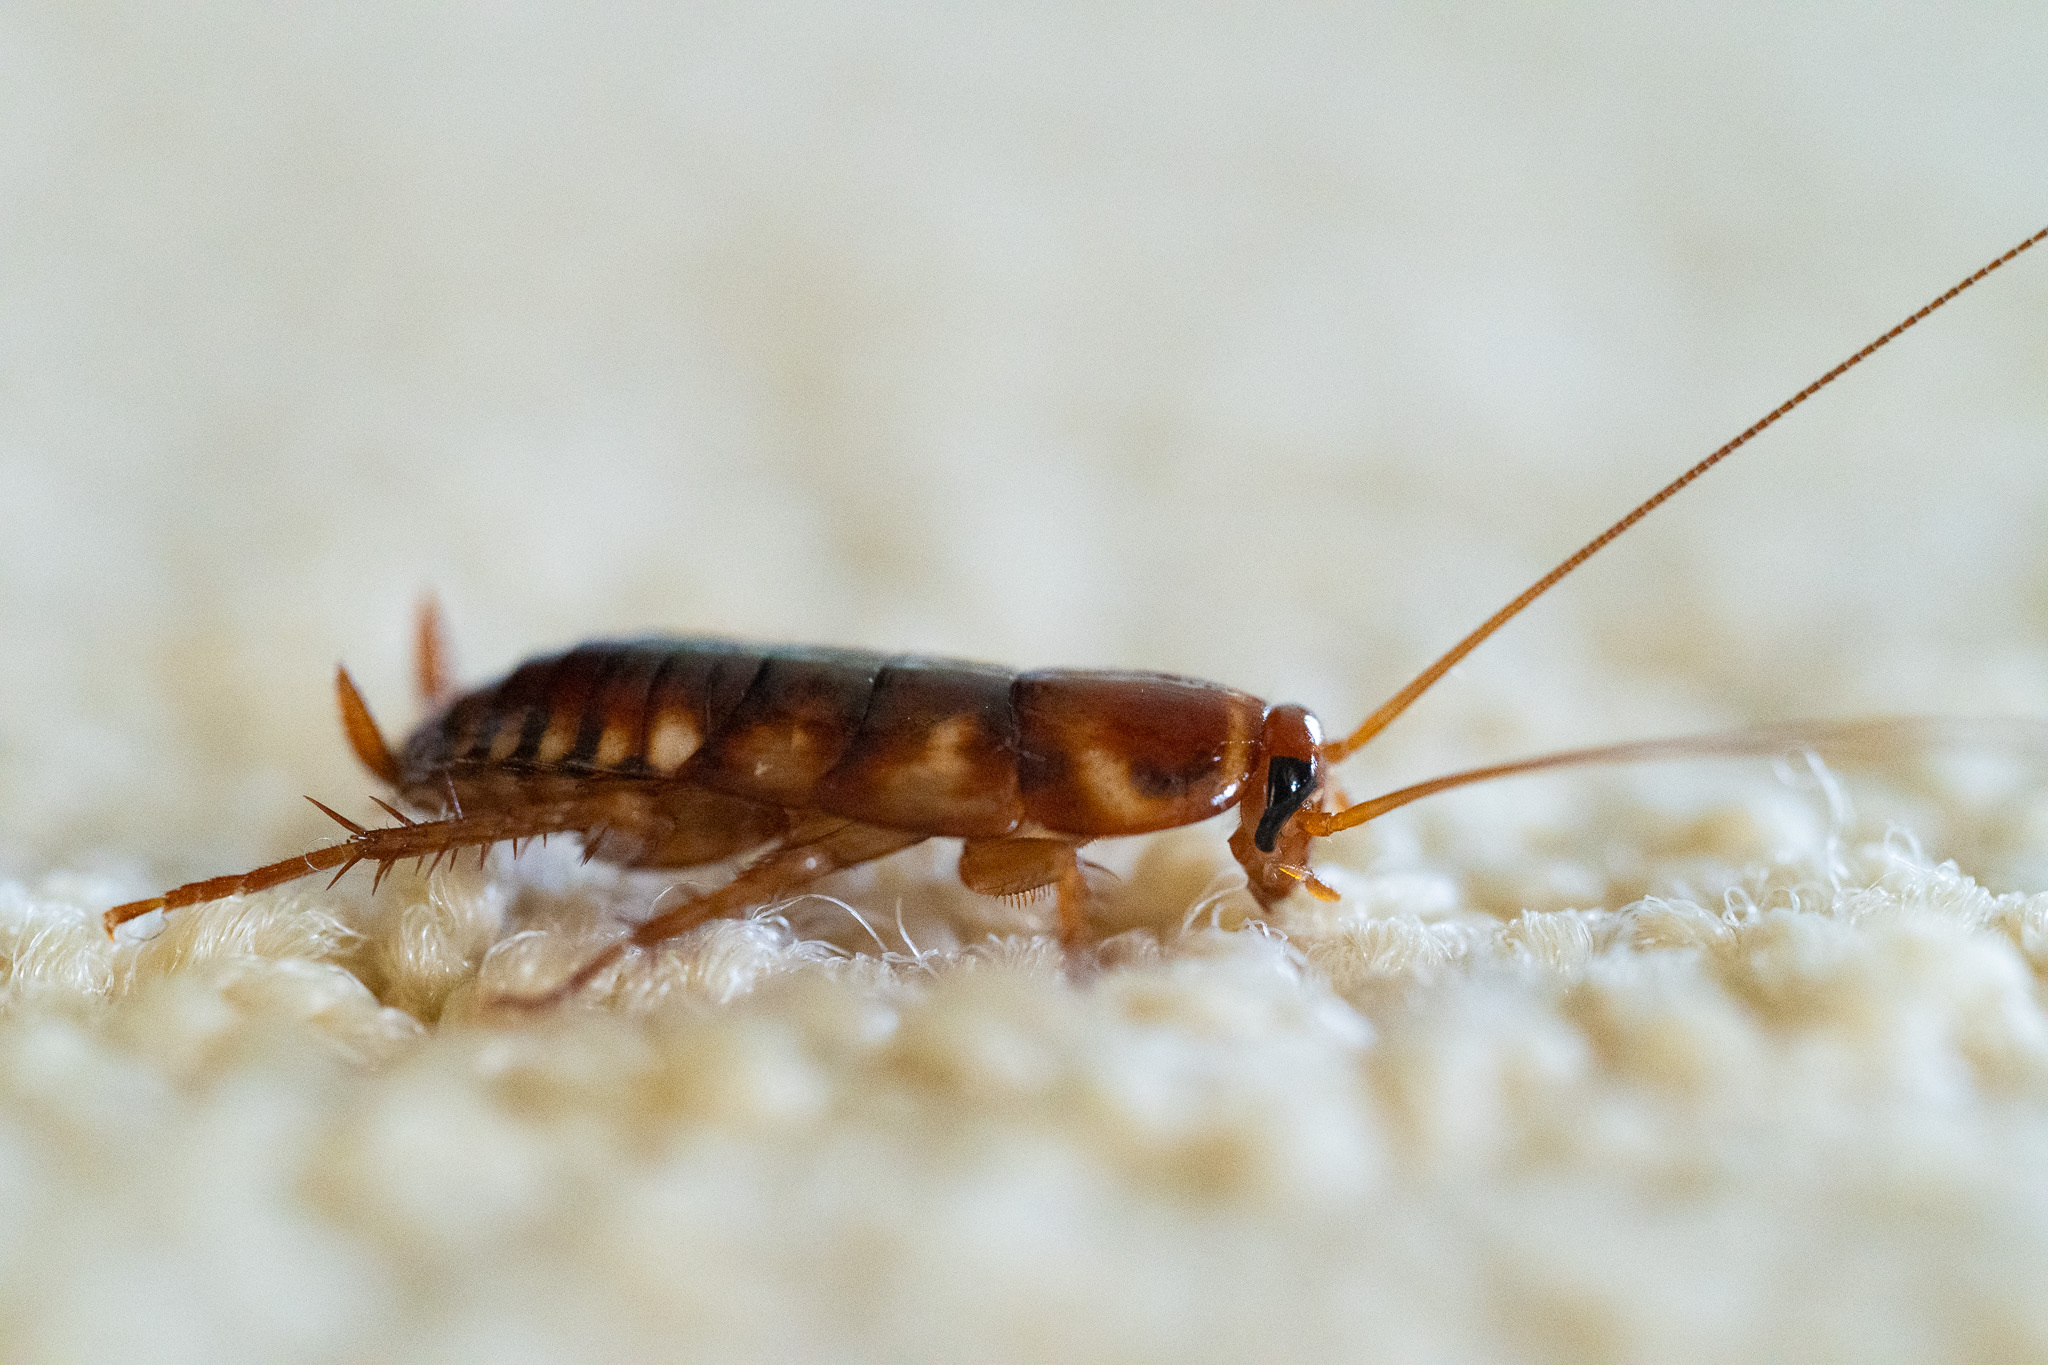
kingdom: Animalia
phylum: Arthropoda
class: Insecta
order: Blattodea
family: Blattidae
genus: Periplaneta
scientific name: Periplaneta australasiae
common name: Australian cockroach
